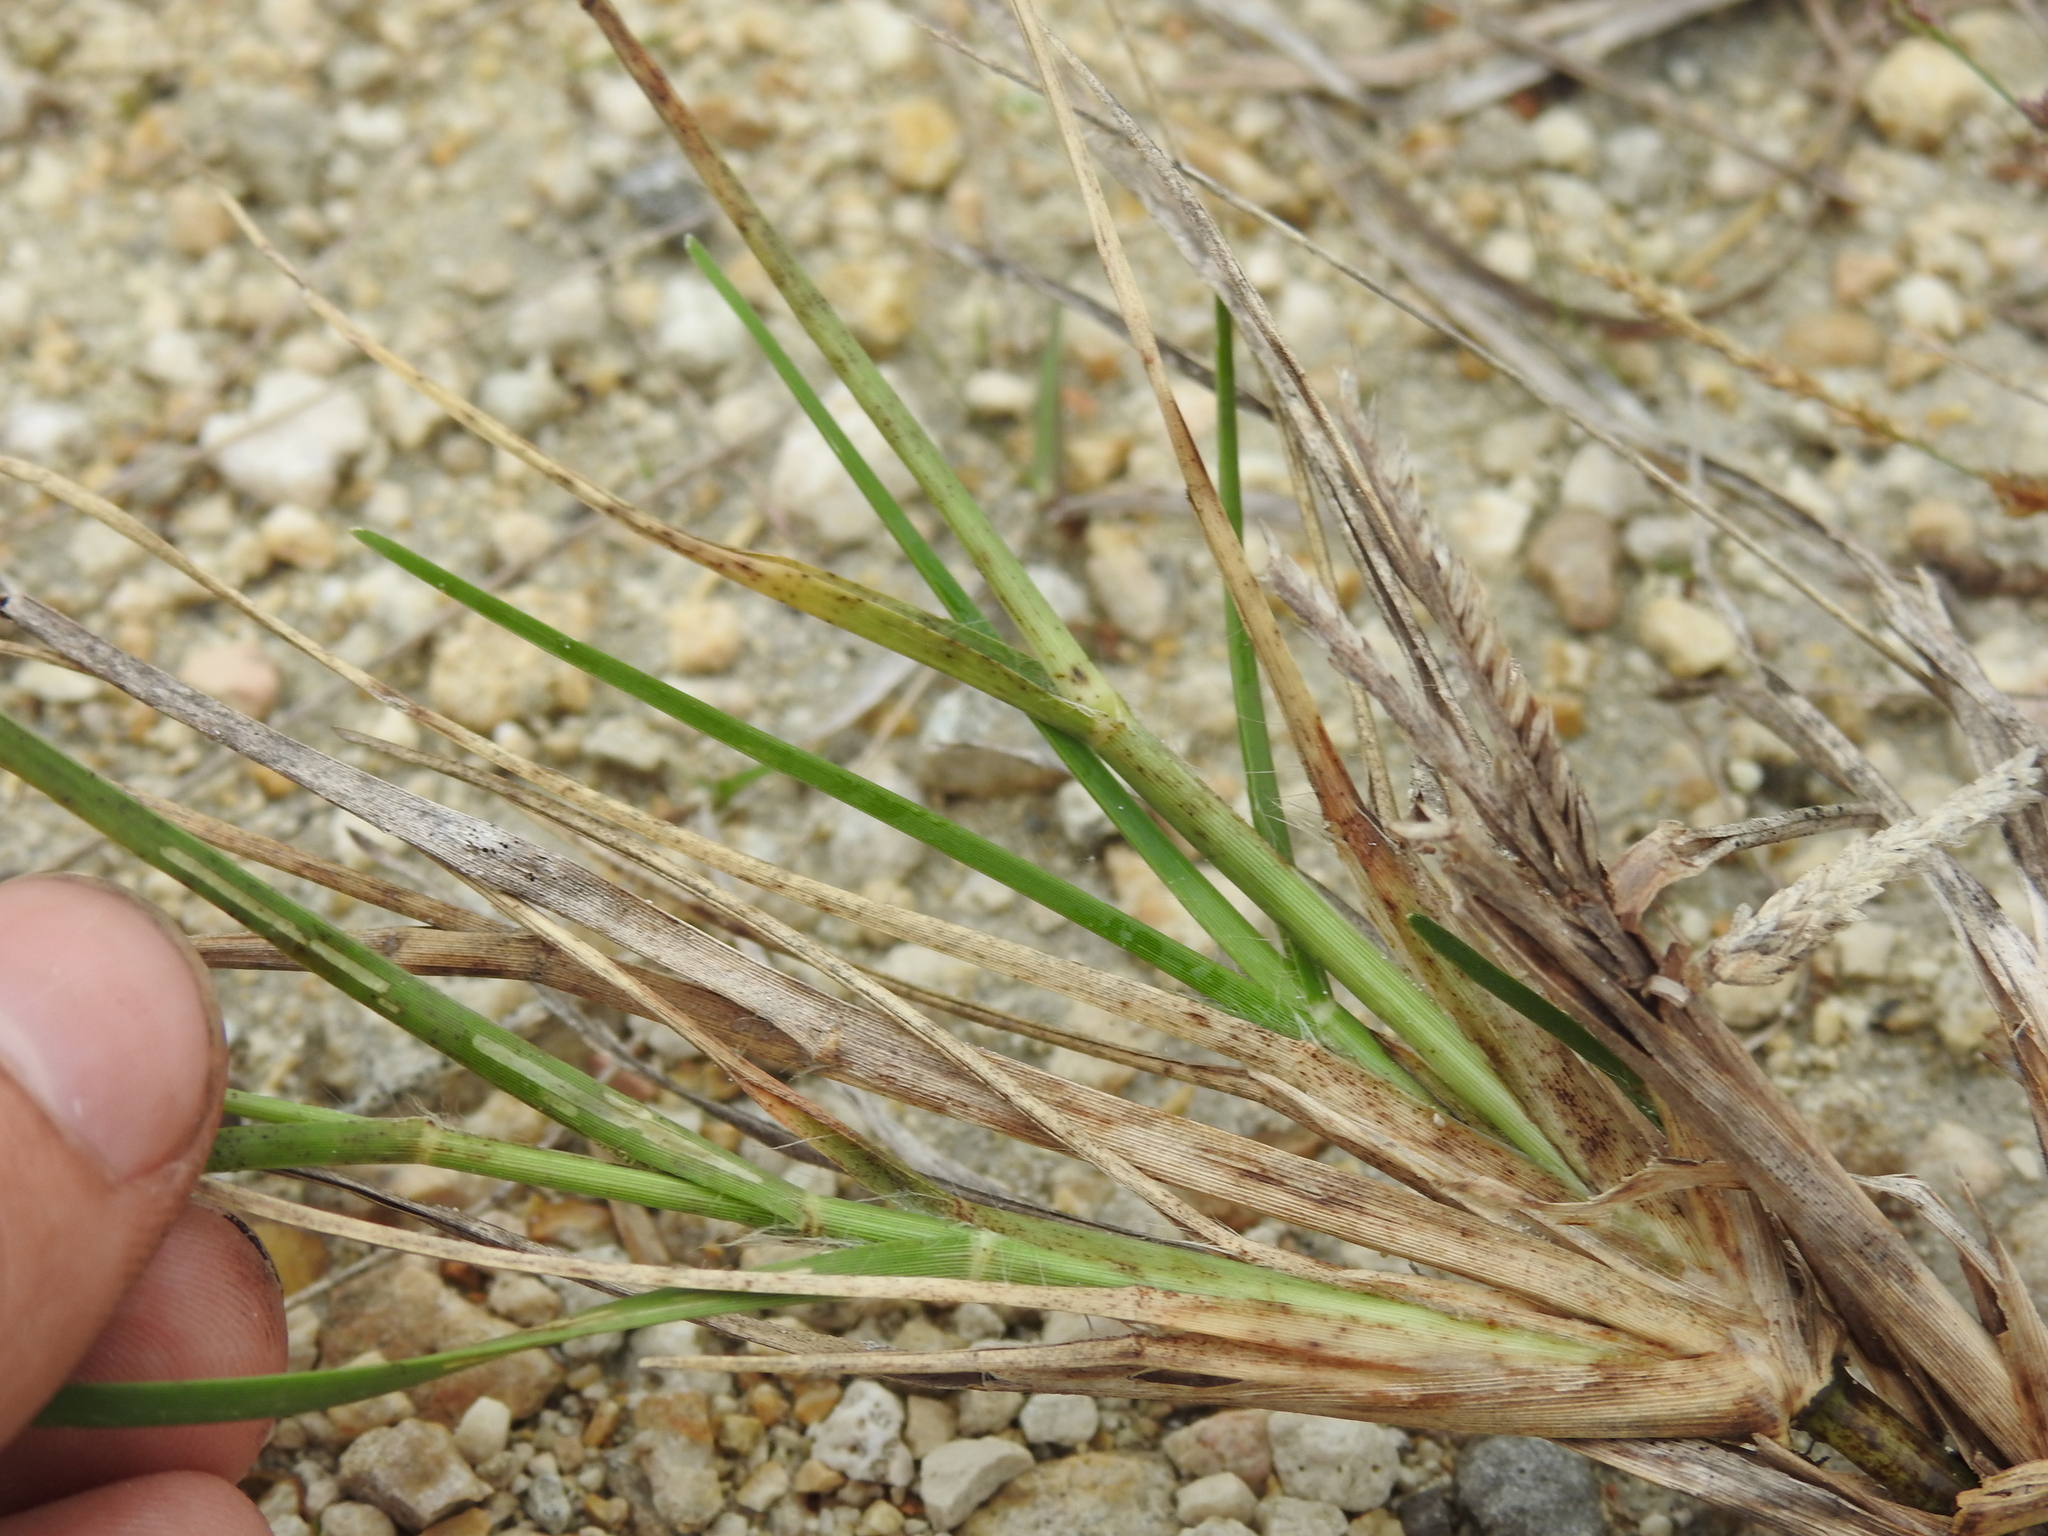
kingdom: Plantae
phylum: Tracheophyta
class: Liliopsida
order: Poales
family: Poaceae
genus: Eleusine
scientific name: Eleusine indica
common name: Yard-grass
